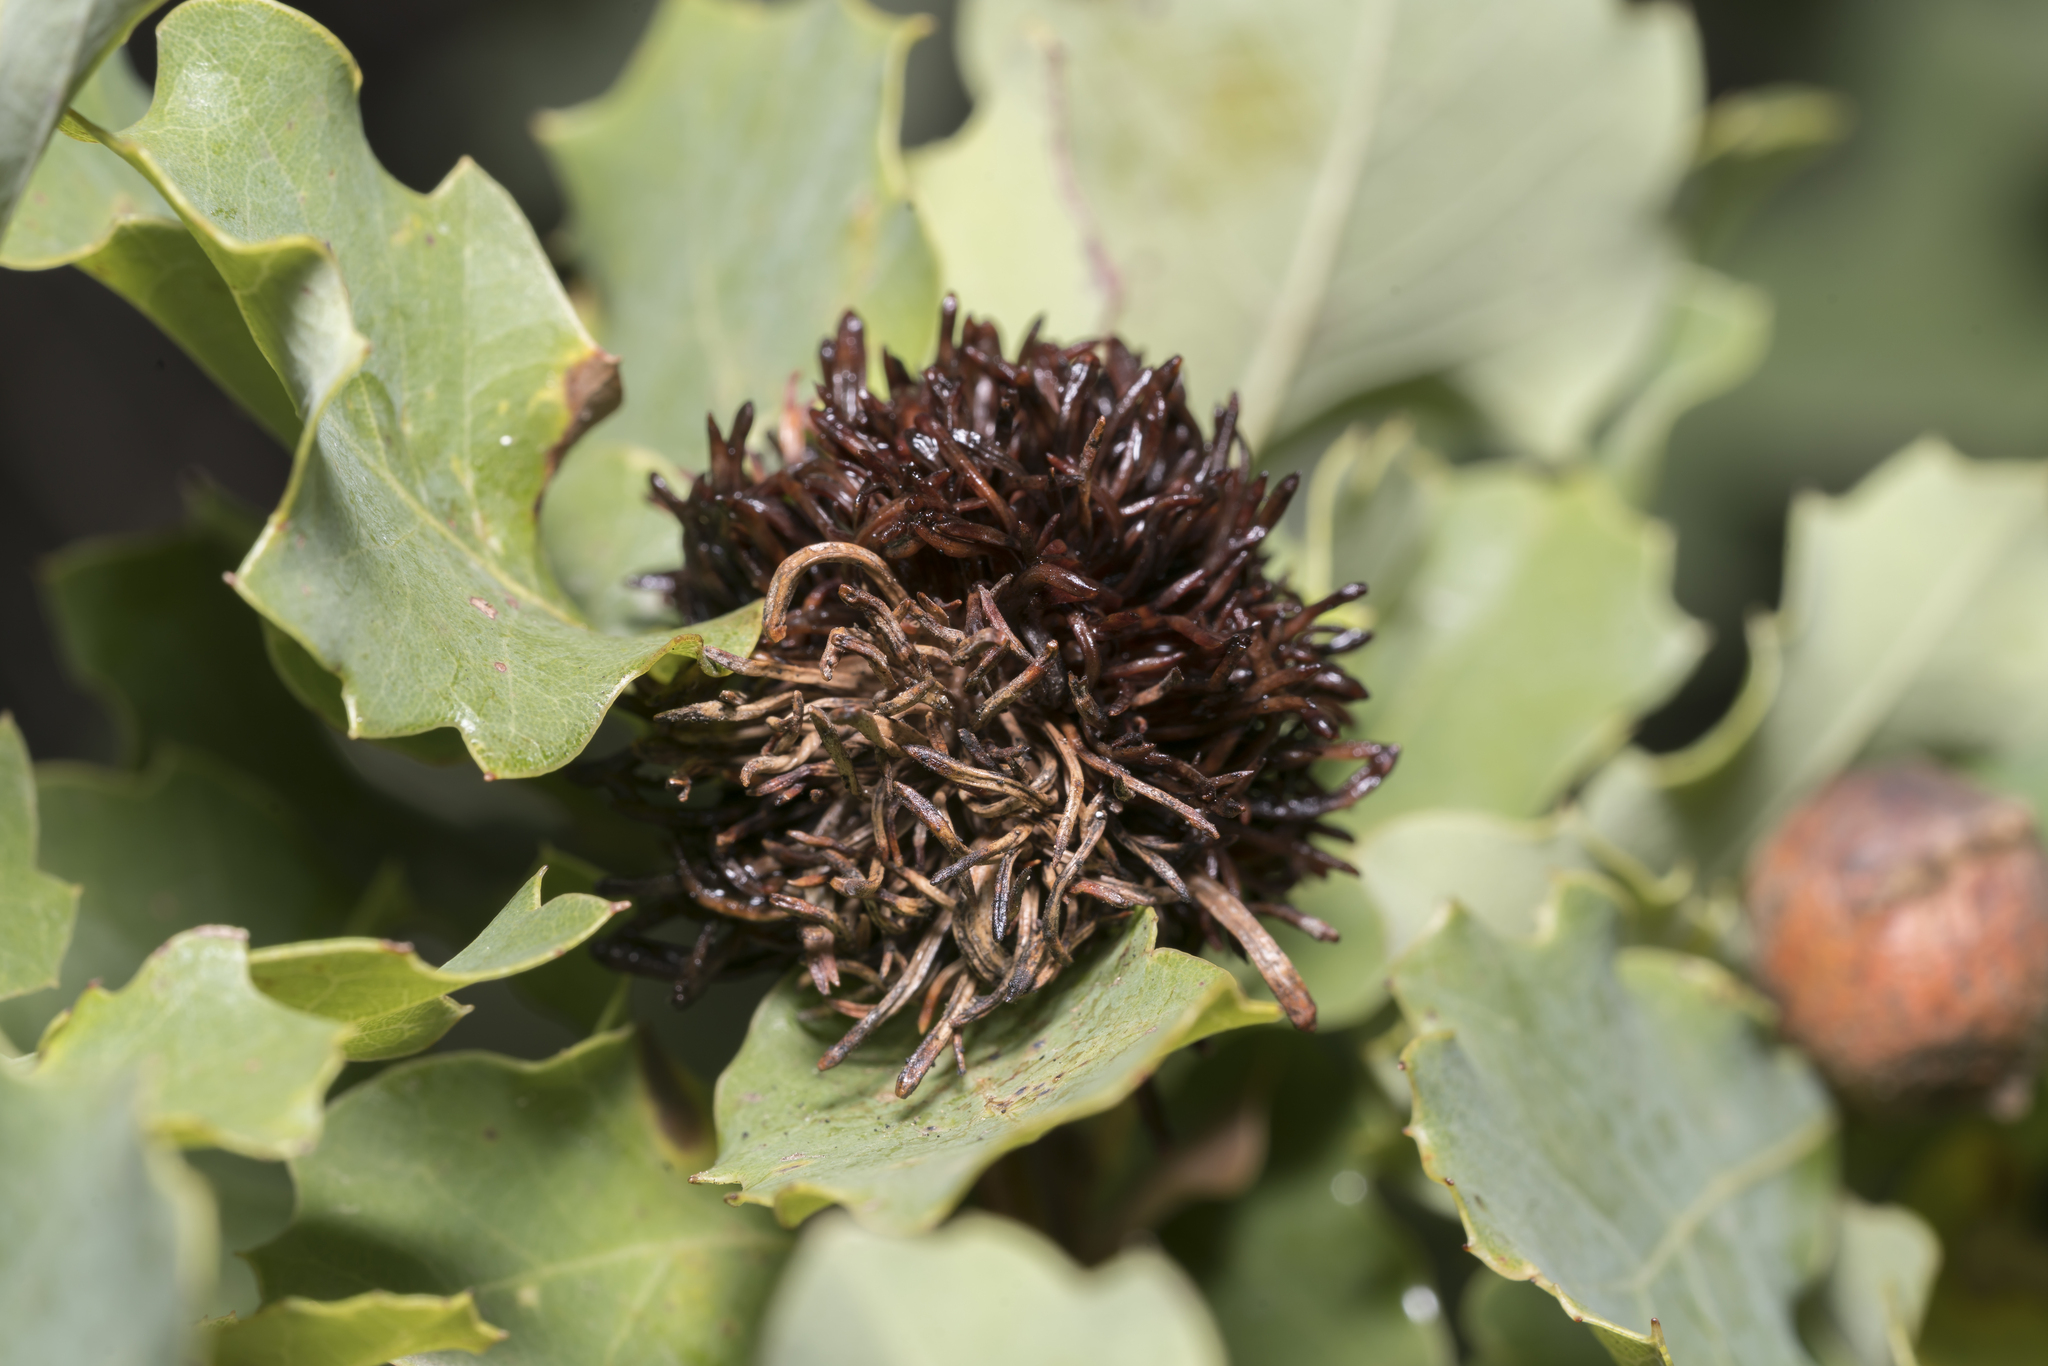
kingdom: Animalia
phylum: Arthropoda
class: Insecta
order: Hymenoptera
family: Cynipidae
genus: Andricus
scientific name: Andricus cecconii
